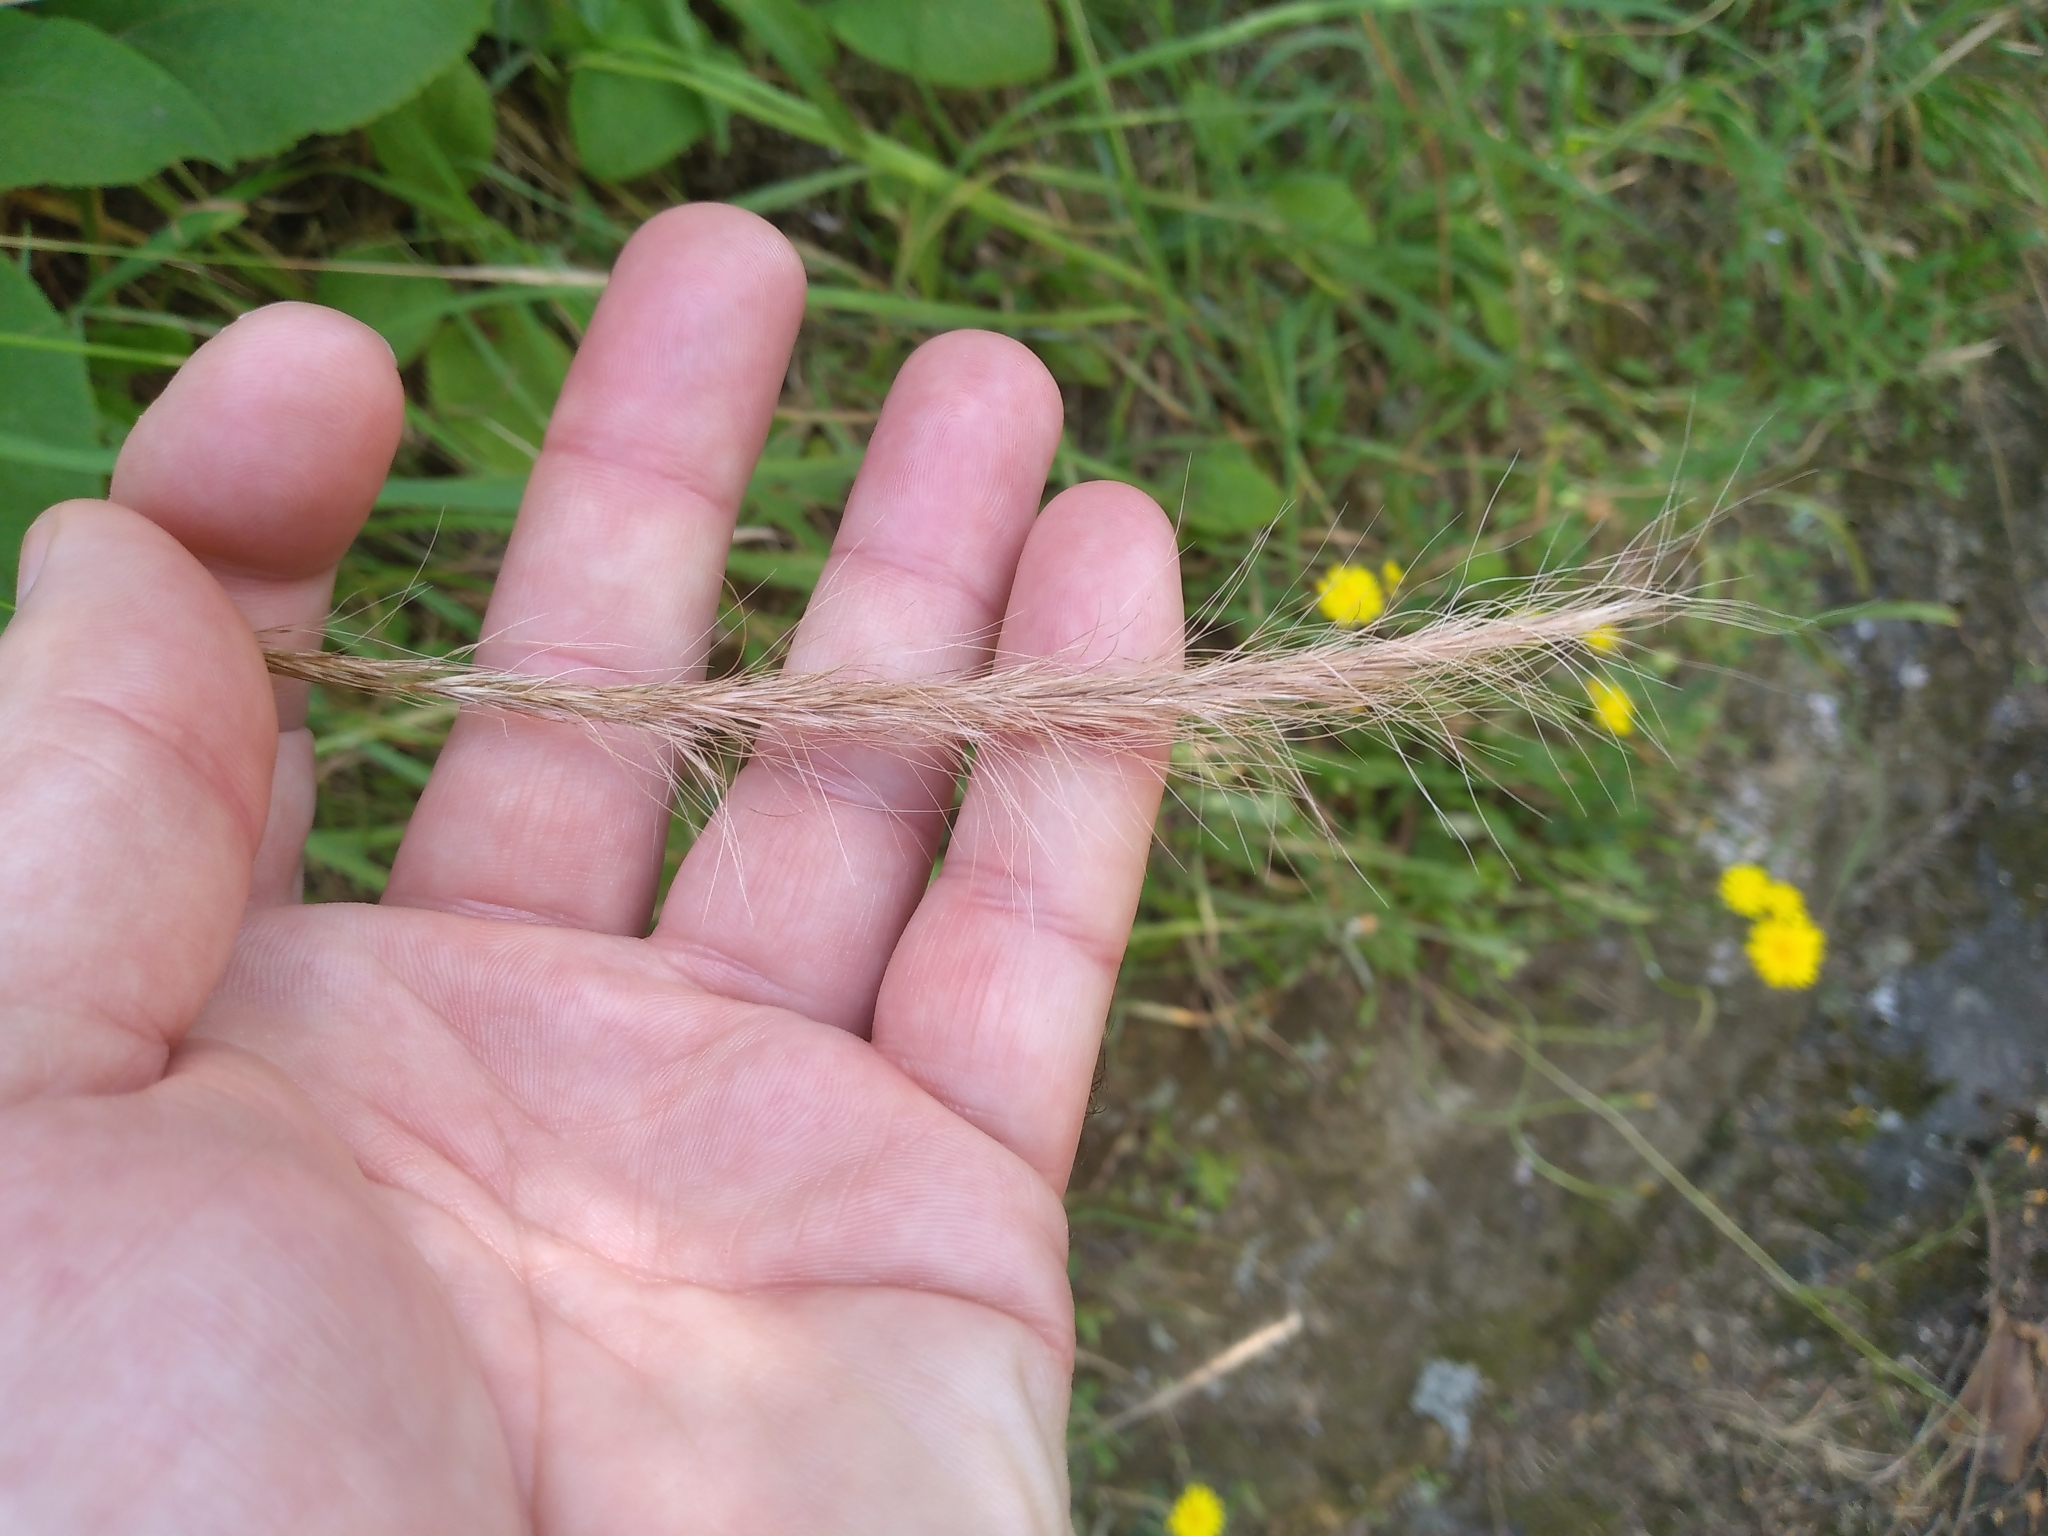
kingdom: Plantae
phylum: Tracheophyta
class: Liliopsida
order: Poales
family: Poaceae
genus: Dichelachne
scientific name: Dichelachne crinita
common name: Clovenfoot plumegrass
